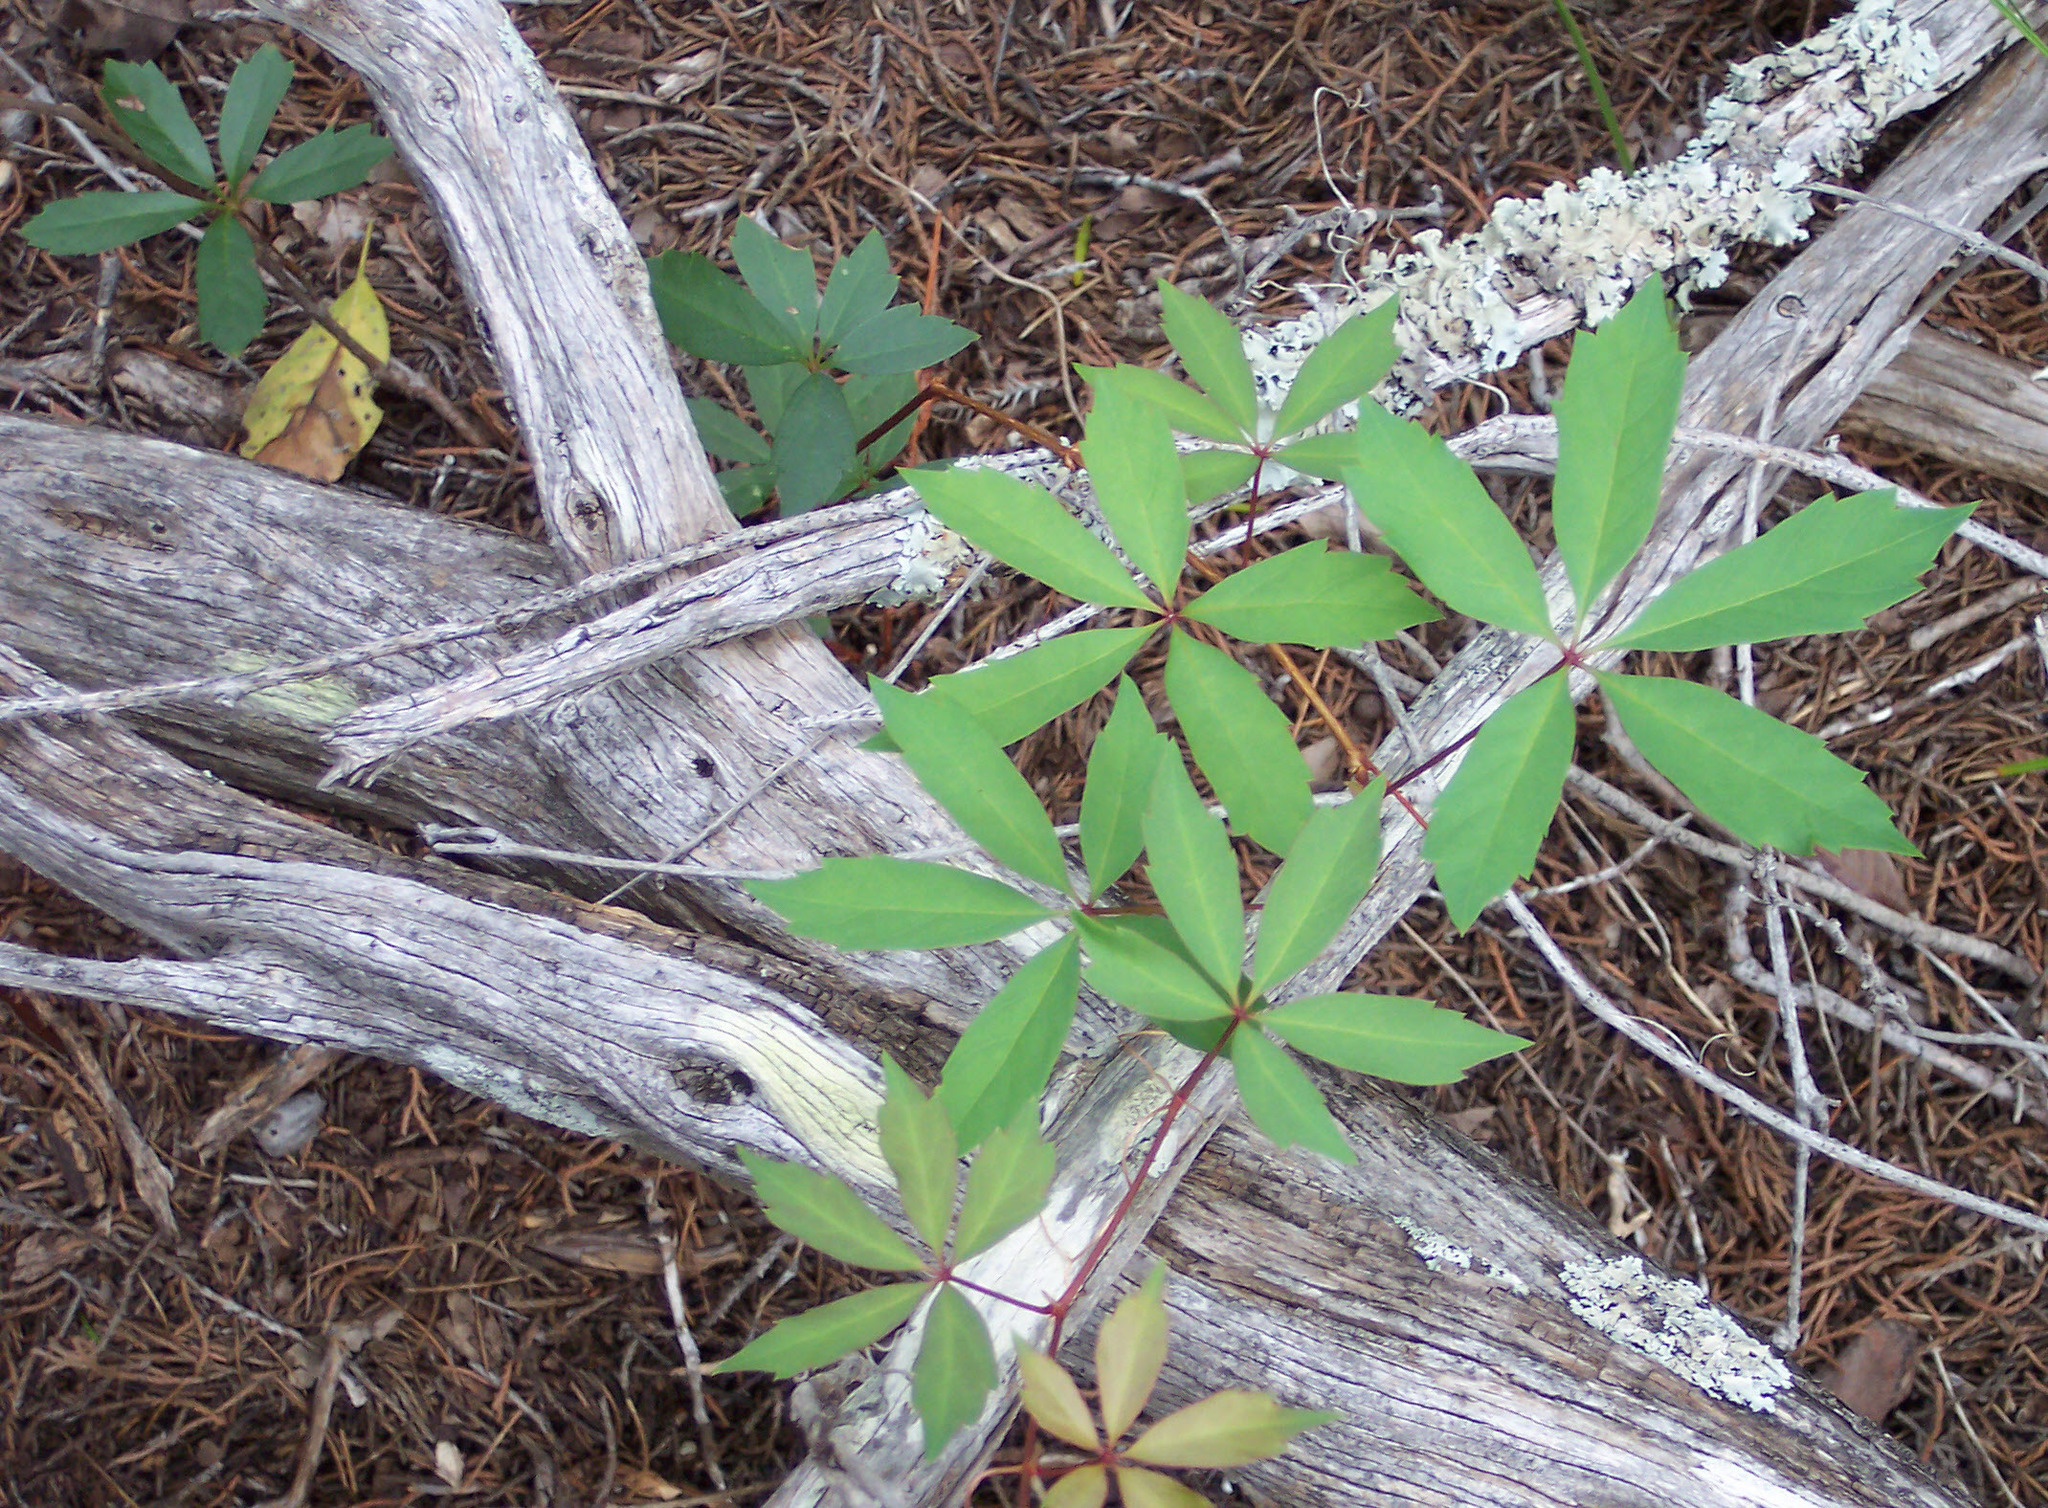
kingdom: Plantae
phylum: Tracheophyta
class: Magnoliopsida
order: Vitales
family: Vitaceae
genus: Parthenocissus
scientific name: Parthenocissus quinquefolia
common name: Virginia-creeper
